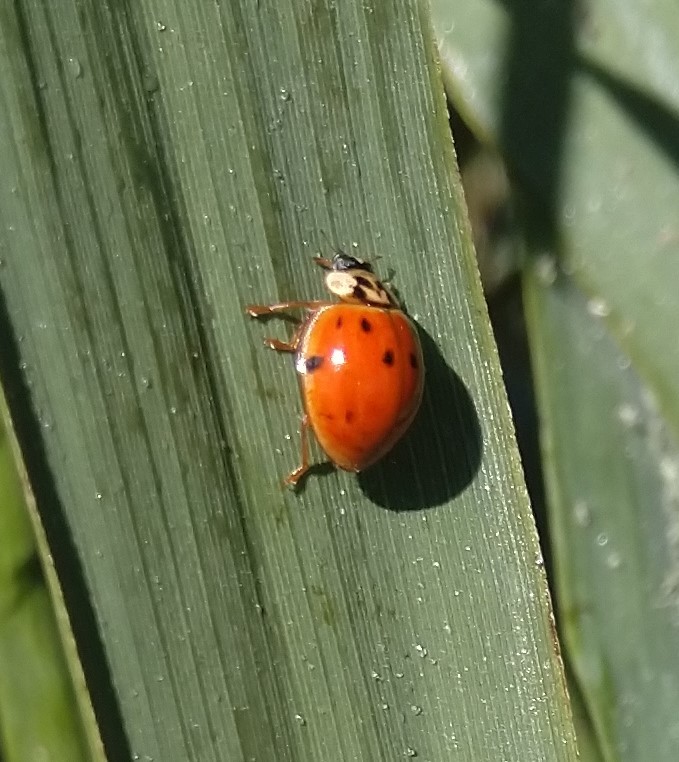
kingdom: Animalia
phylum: Arthropoda
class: Insecta
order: Coleoptera
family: Coccinellidae
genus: Harmonia
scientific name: Harmonia axyridis
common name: Harlequin ladybird
